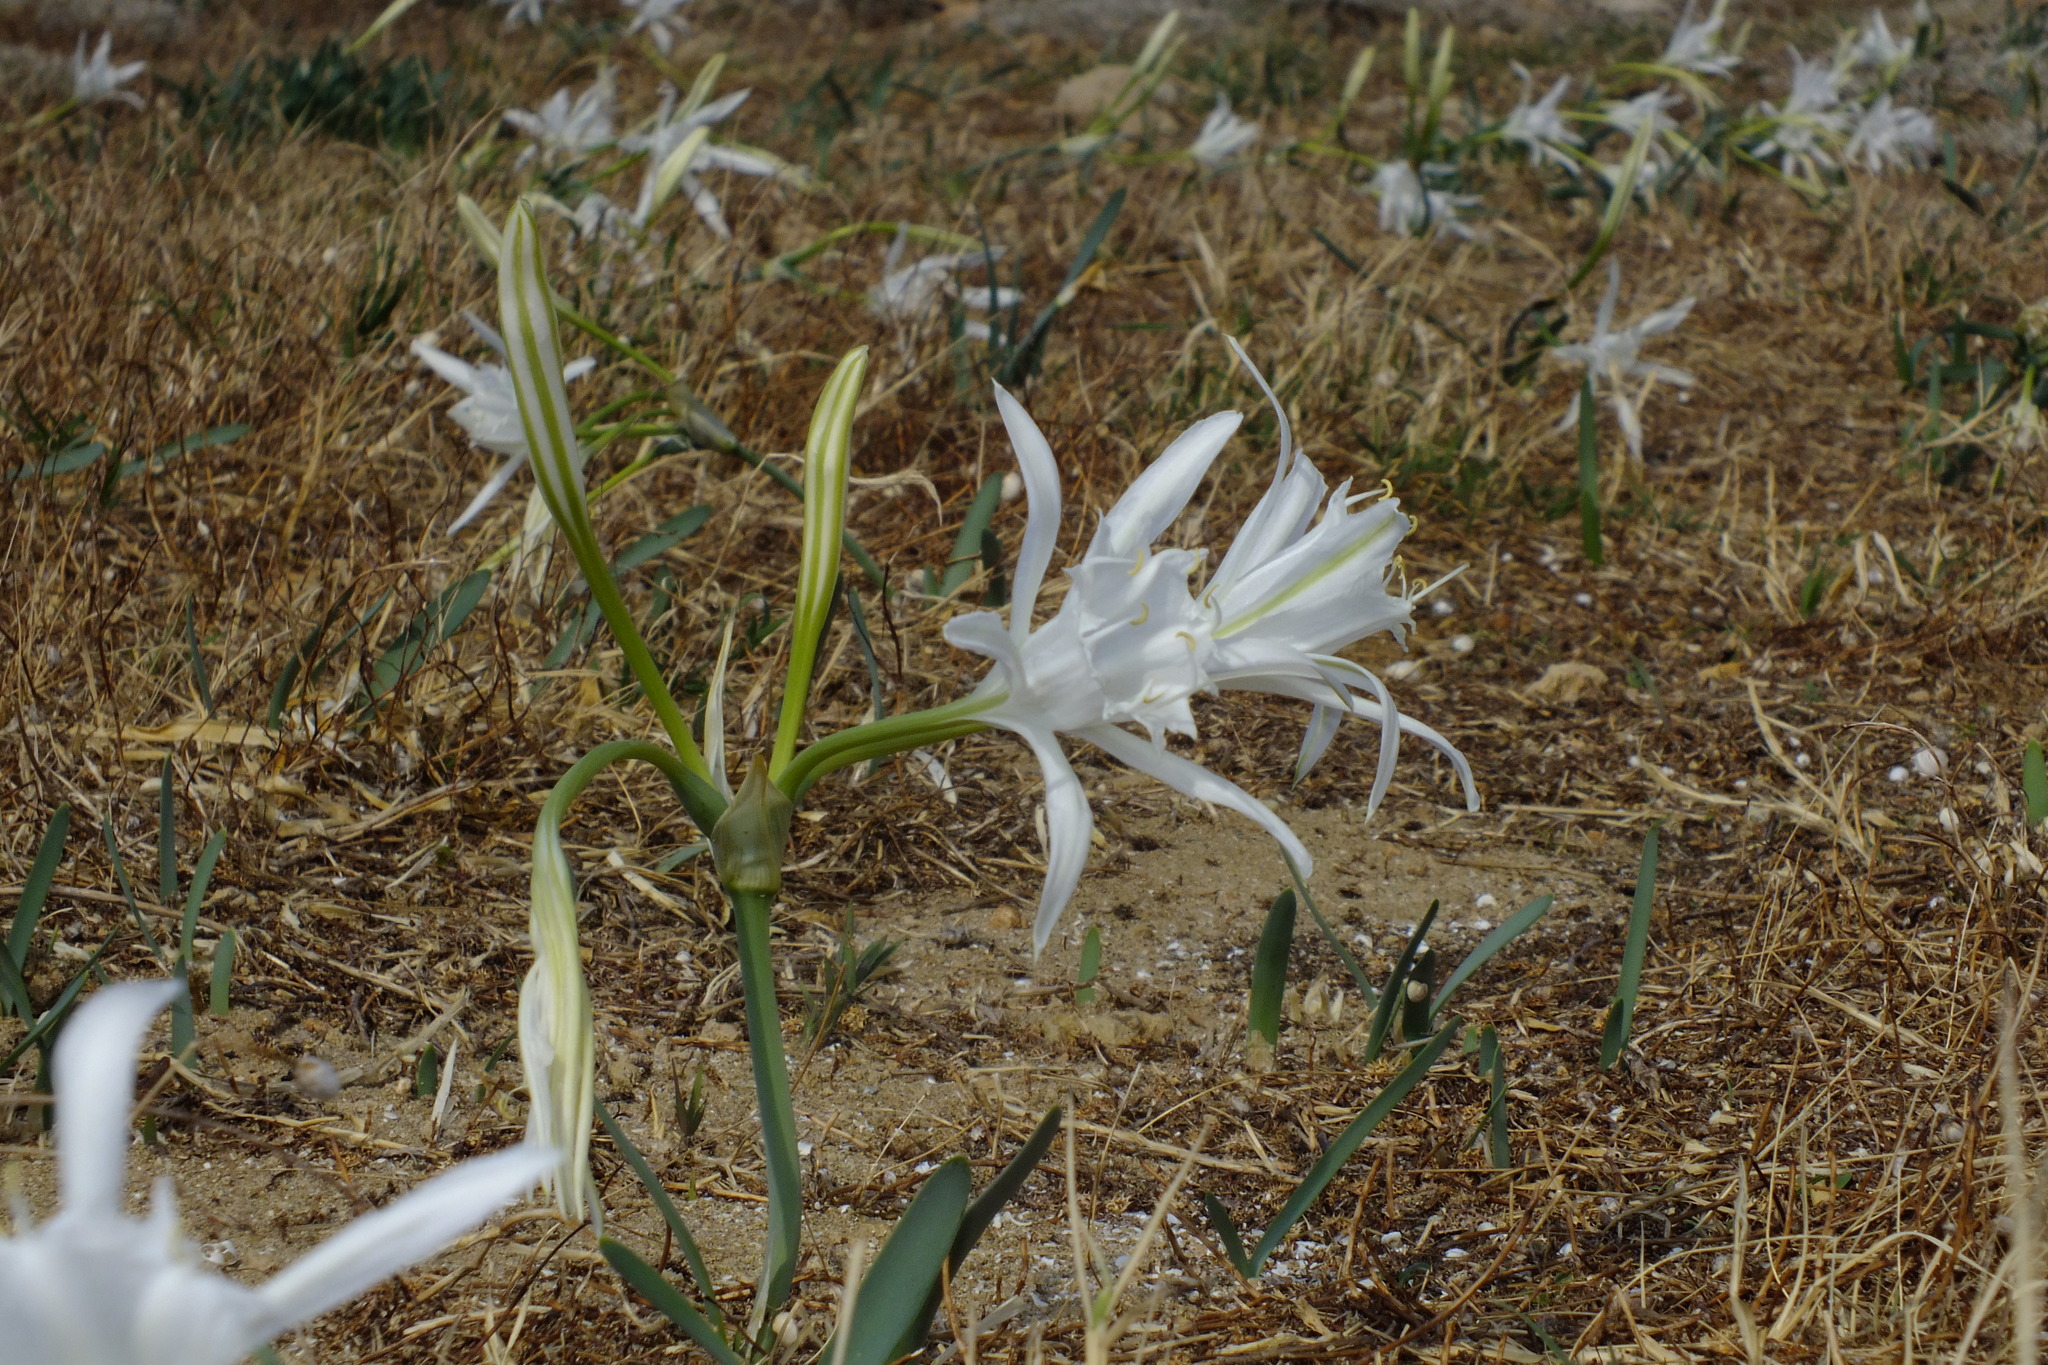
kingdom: Plantae
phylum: Tracheophyta
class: Liliopsida
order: Asparagales
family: Amaryllidaceae
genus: Pancratium
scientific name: Pancratium maritimum
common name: Sea-daffodil
